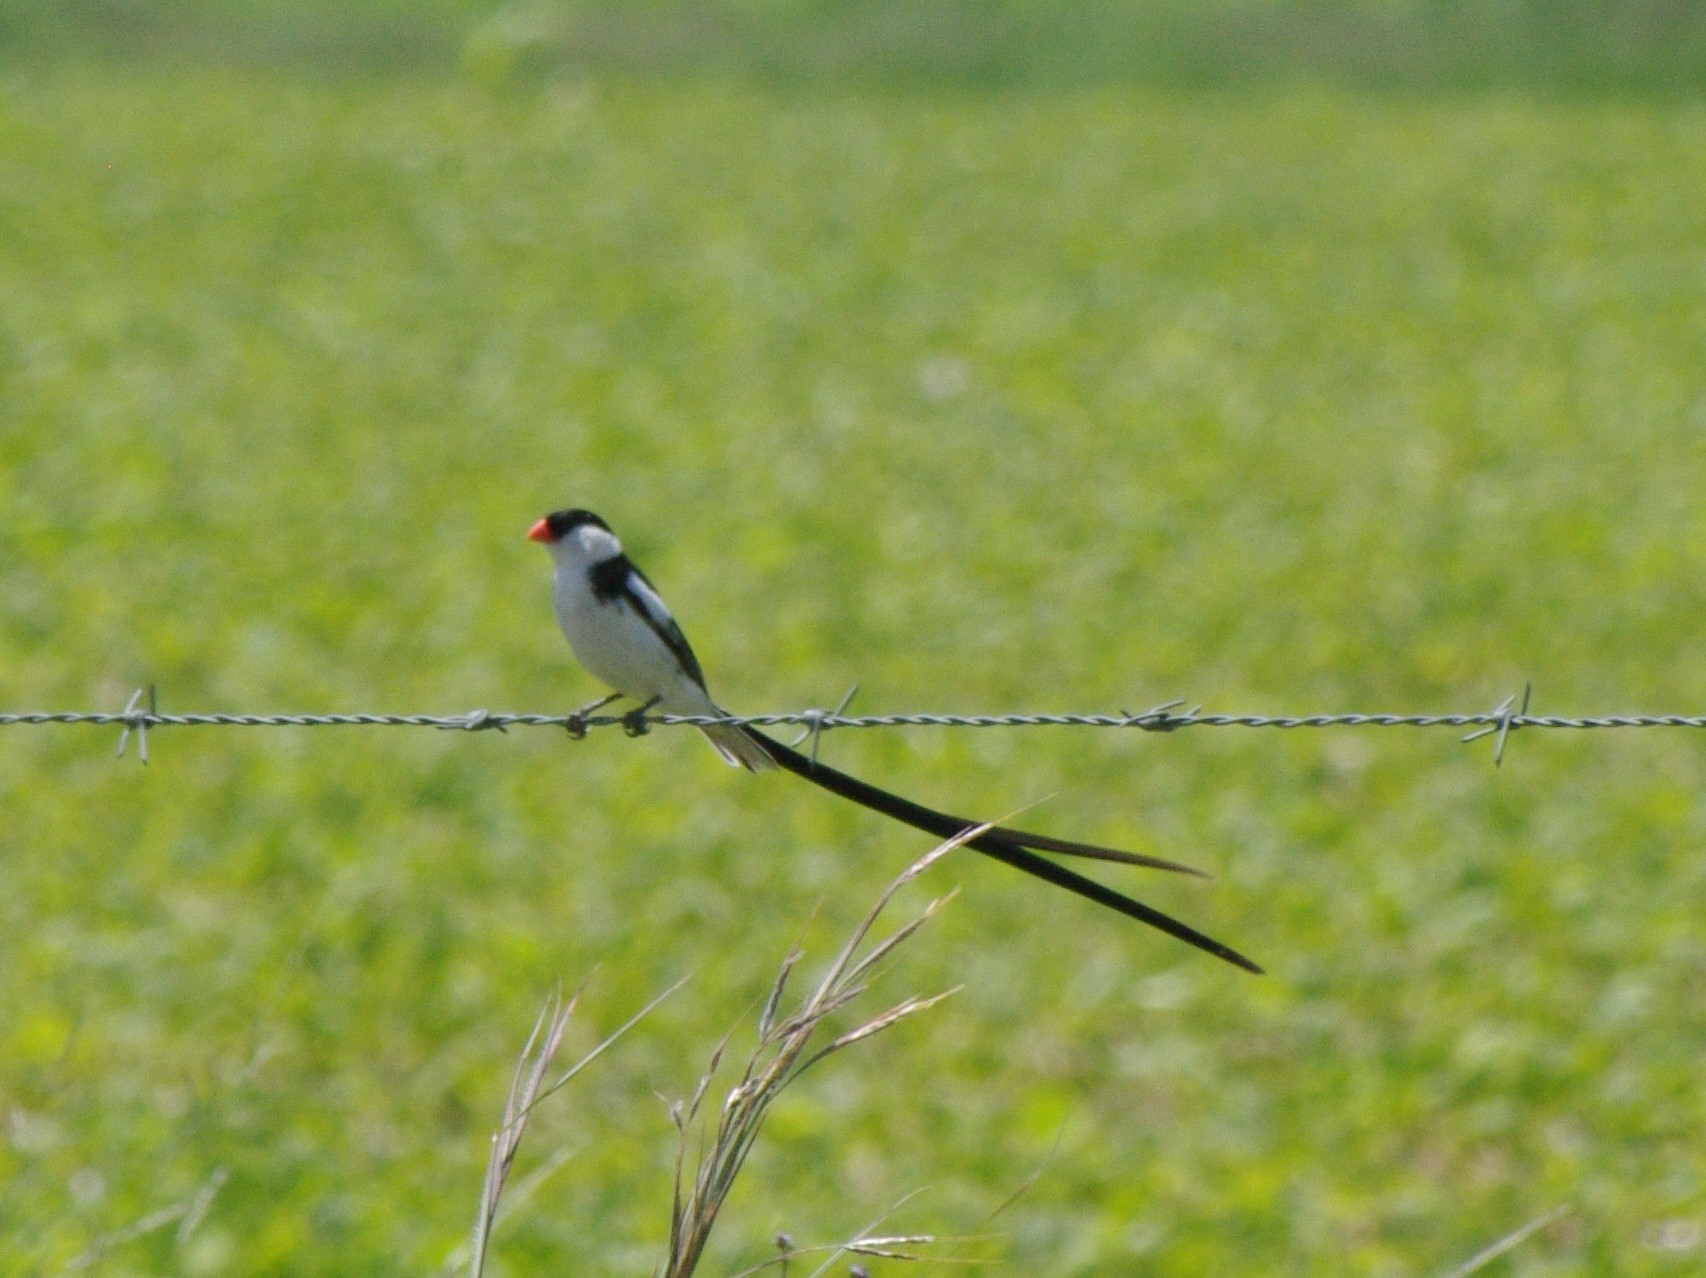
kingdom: Animalia
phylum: Chordata
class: Aves
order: Passeriformes
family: Viduidae
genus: Vidua
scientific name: Vidua macroura
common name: Pin-tailed whydah
